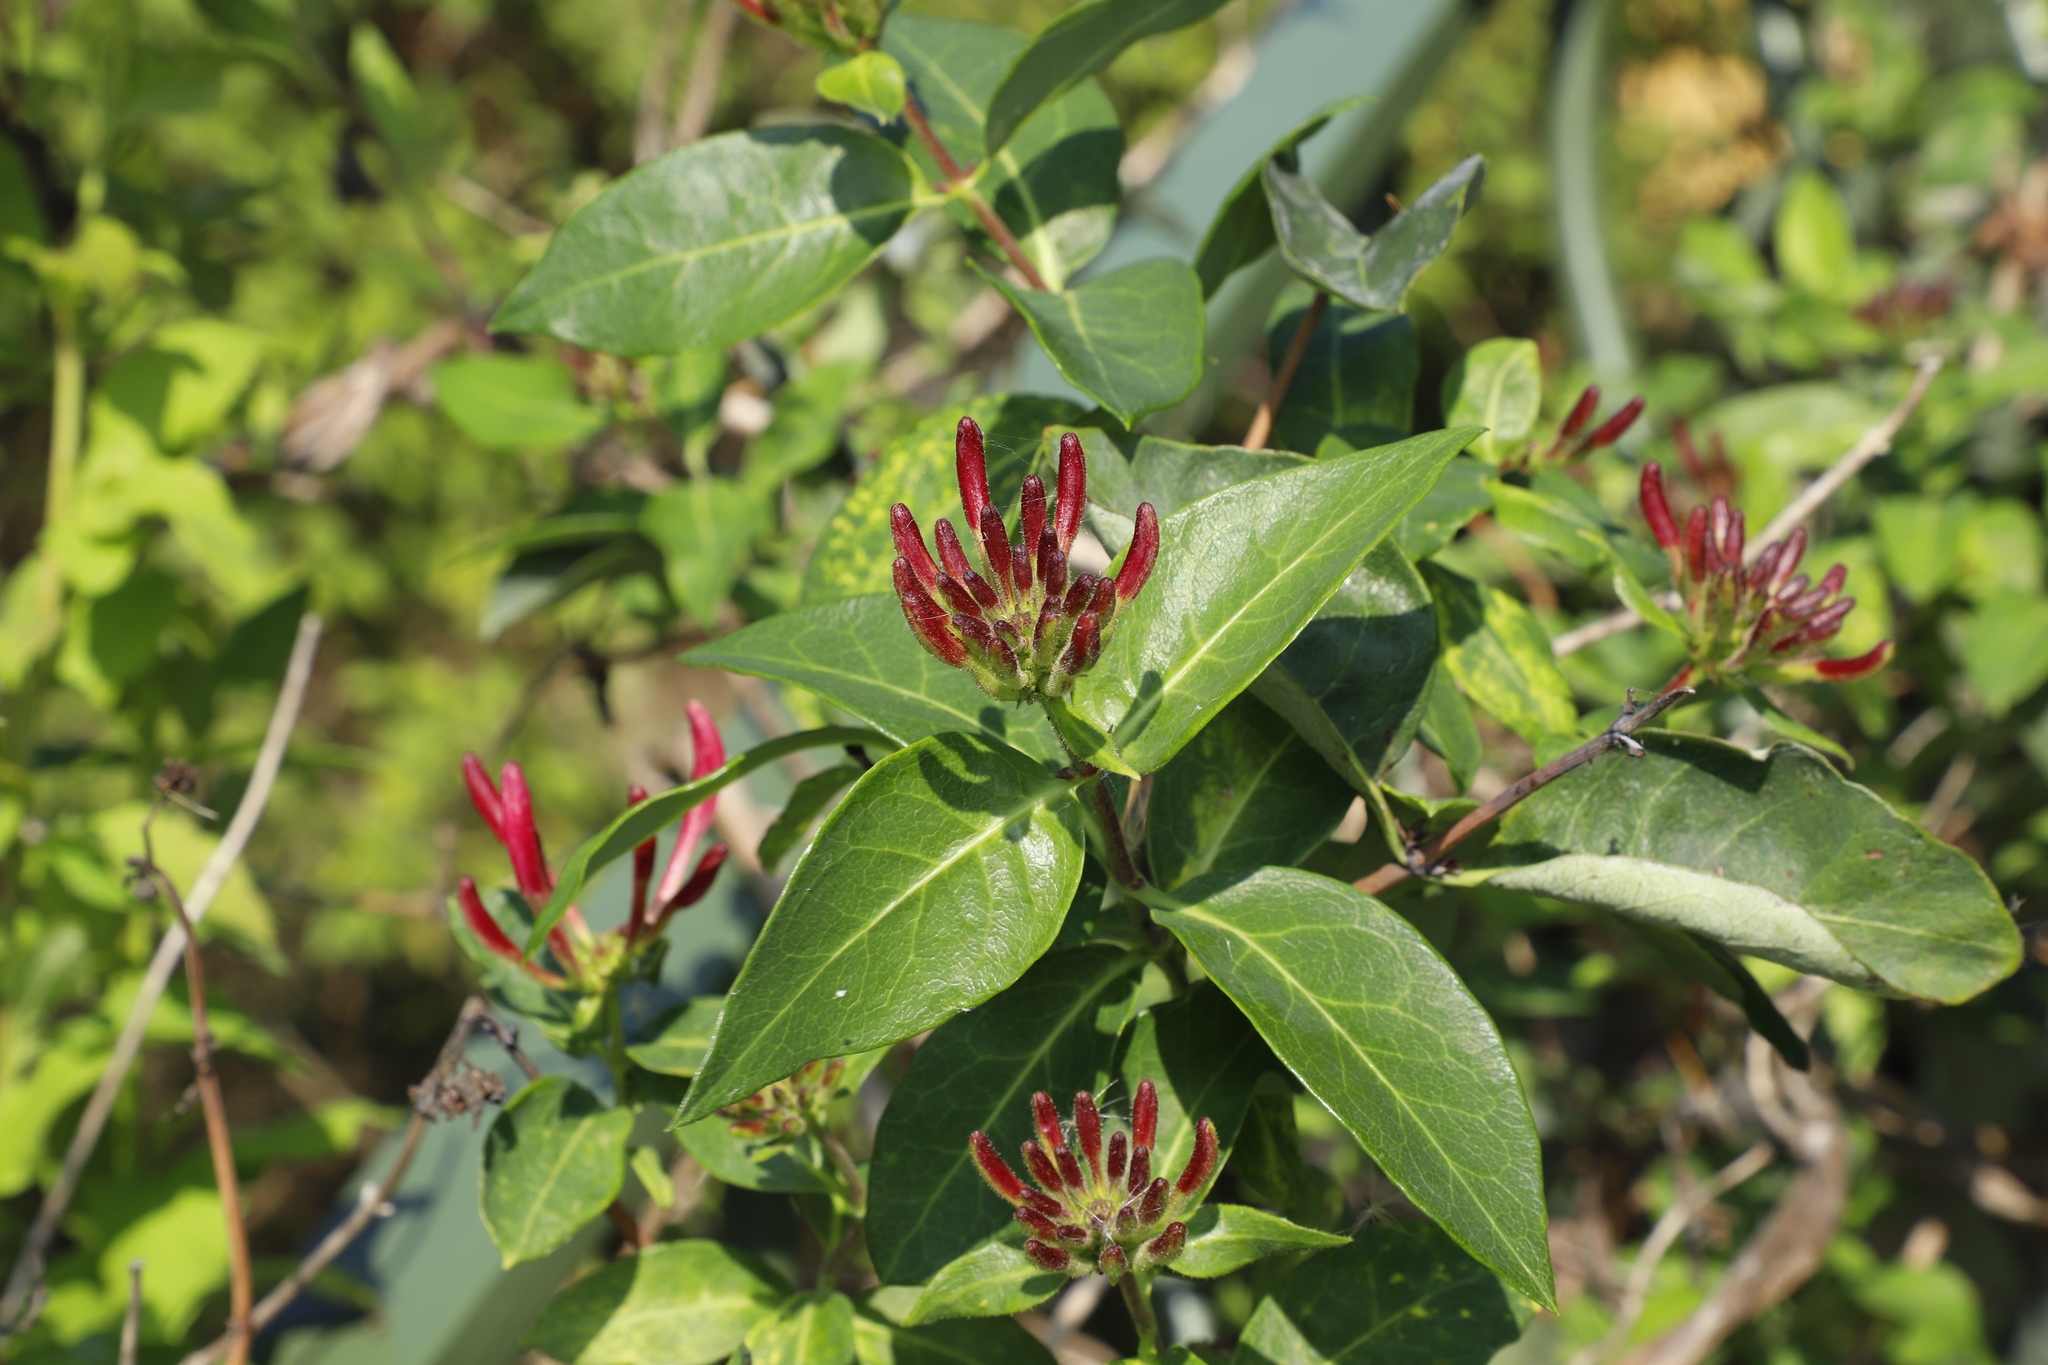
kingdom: Plantae
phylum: Tracheophyta
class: Magnoliopsida
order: Dipsacales
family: Caprifoliaceae
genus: Lonicera
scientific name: Lonicera periclymenum
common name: European honeysuckle
